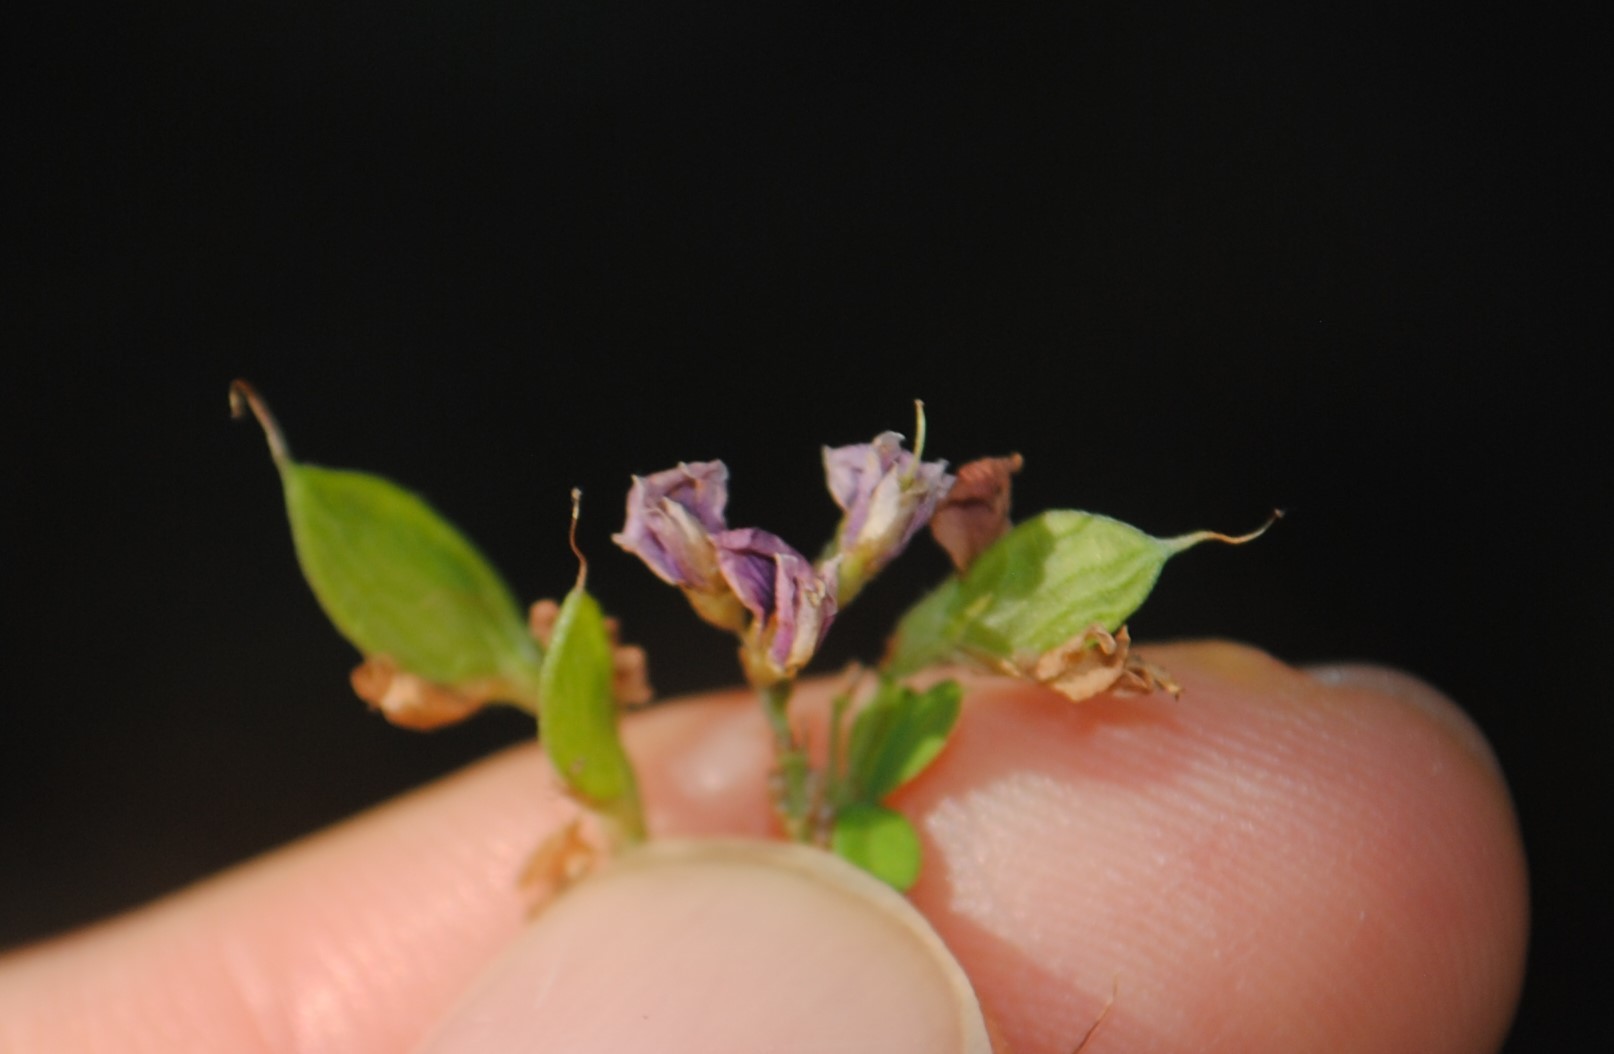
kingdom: Plantae
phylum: Tracheophyta
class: Magnoliopsida
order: Fabales
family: Fabaceae
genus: Lespedeza
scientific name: Lespedeza violacea
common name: Wand bush-clover
